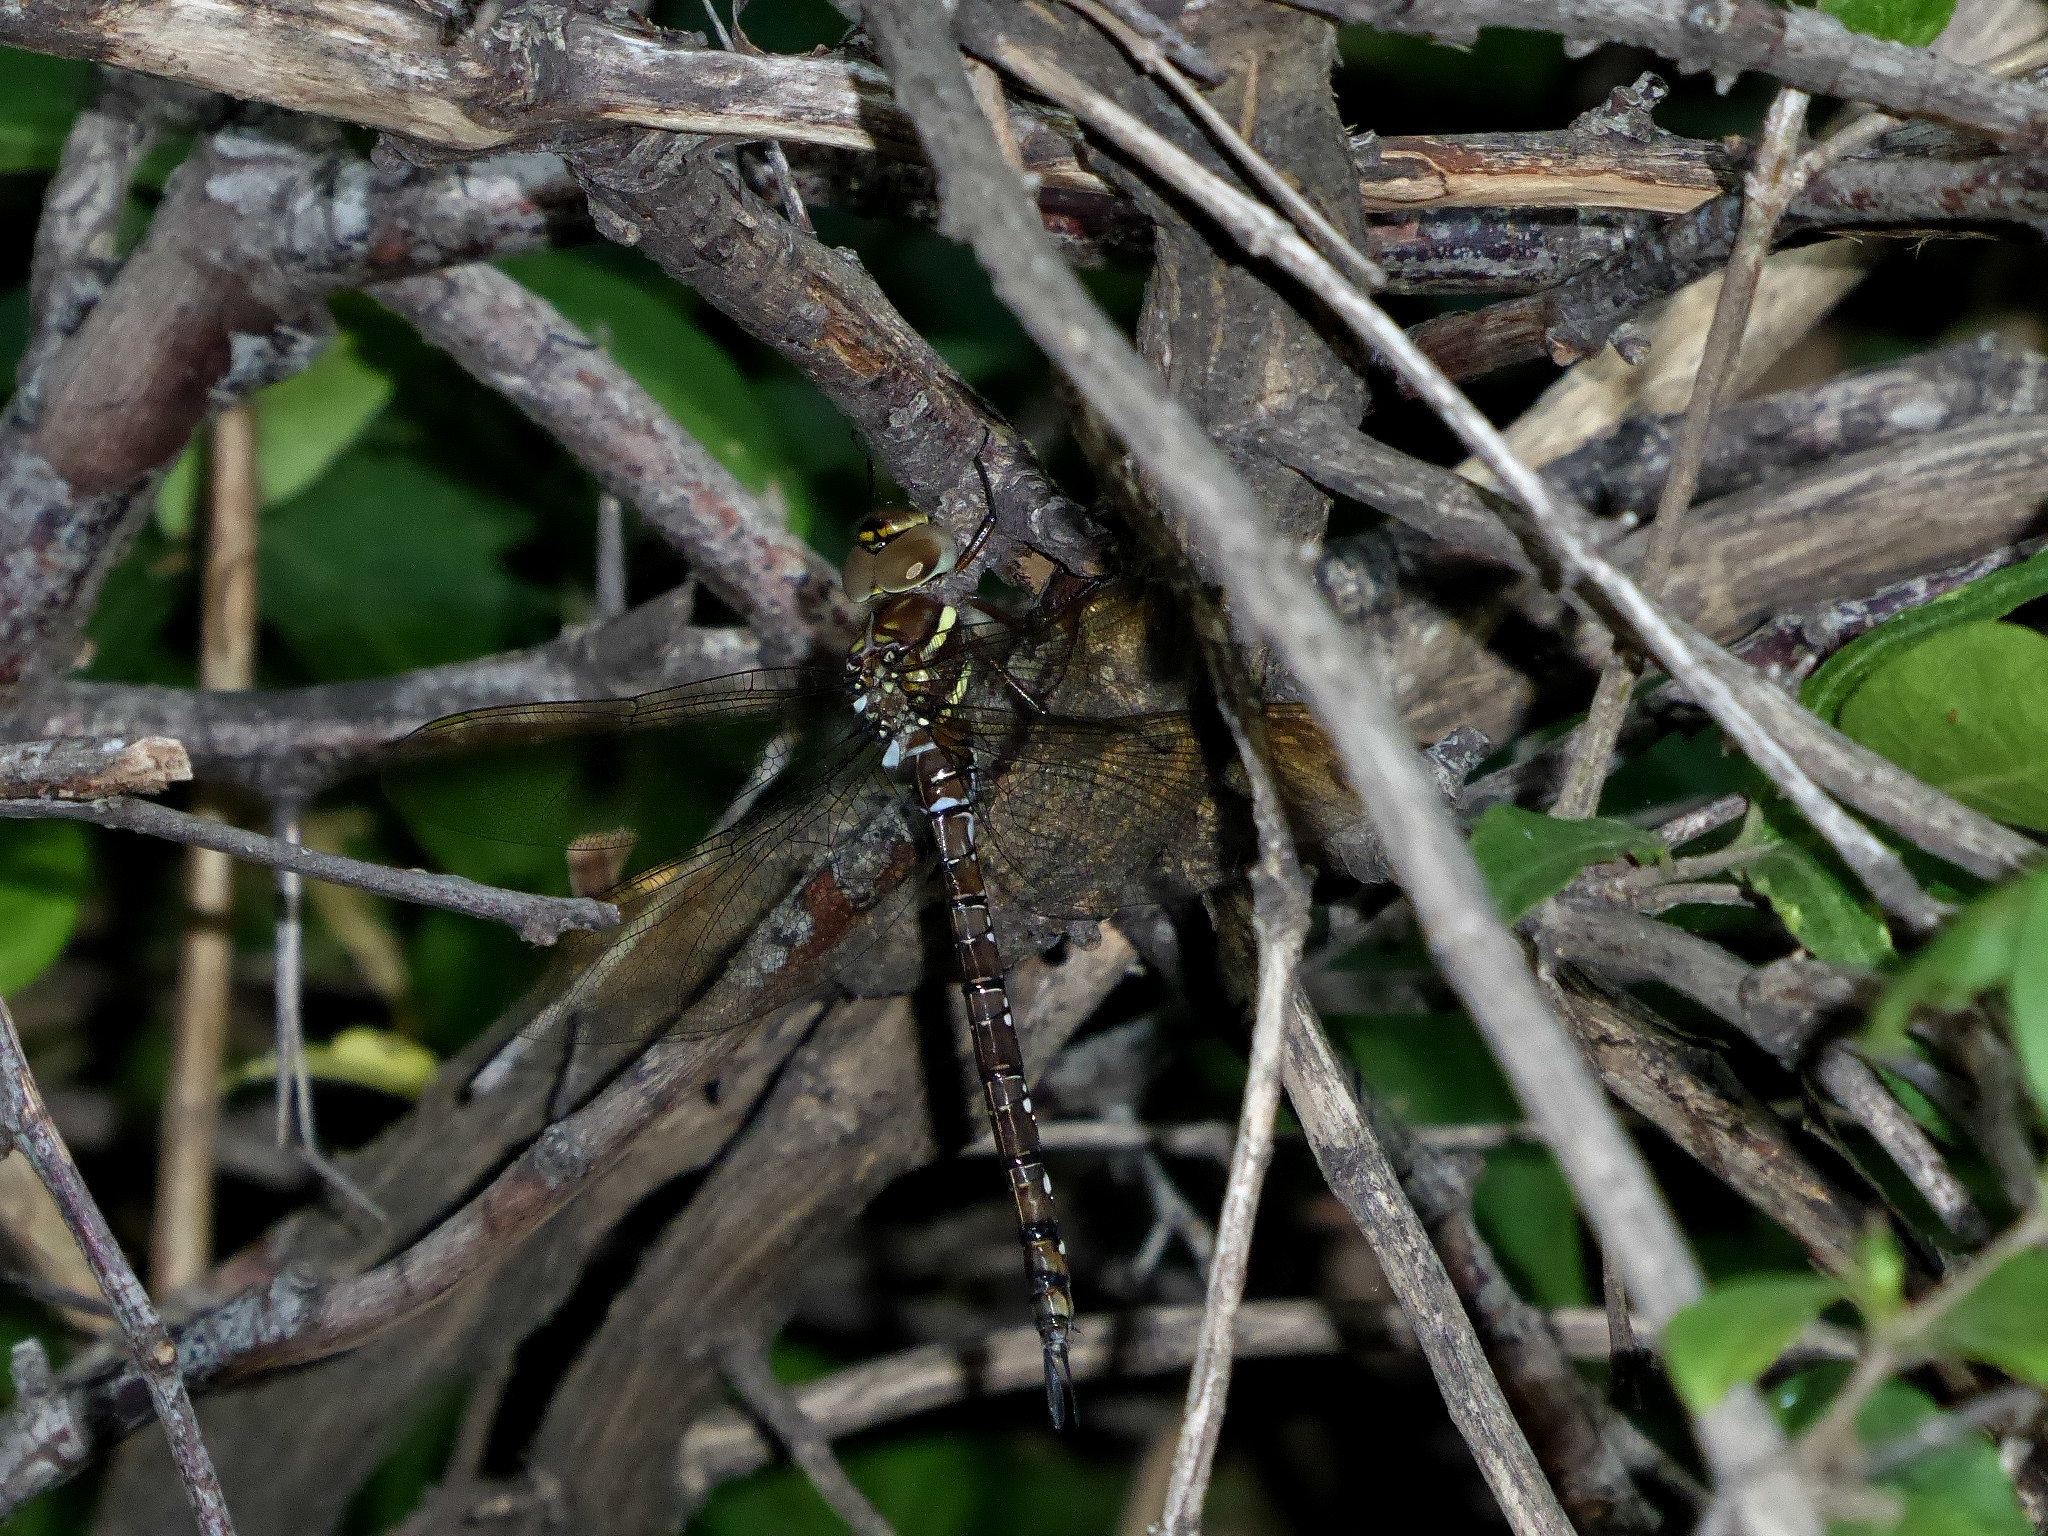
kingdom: Animalia
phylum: Arthropoda
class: Insecta
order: Odonata
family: Aeshnidae
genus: Aeshna
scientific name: Aeshna umbrosa
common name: Shadow darner
